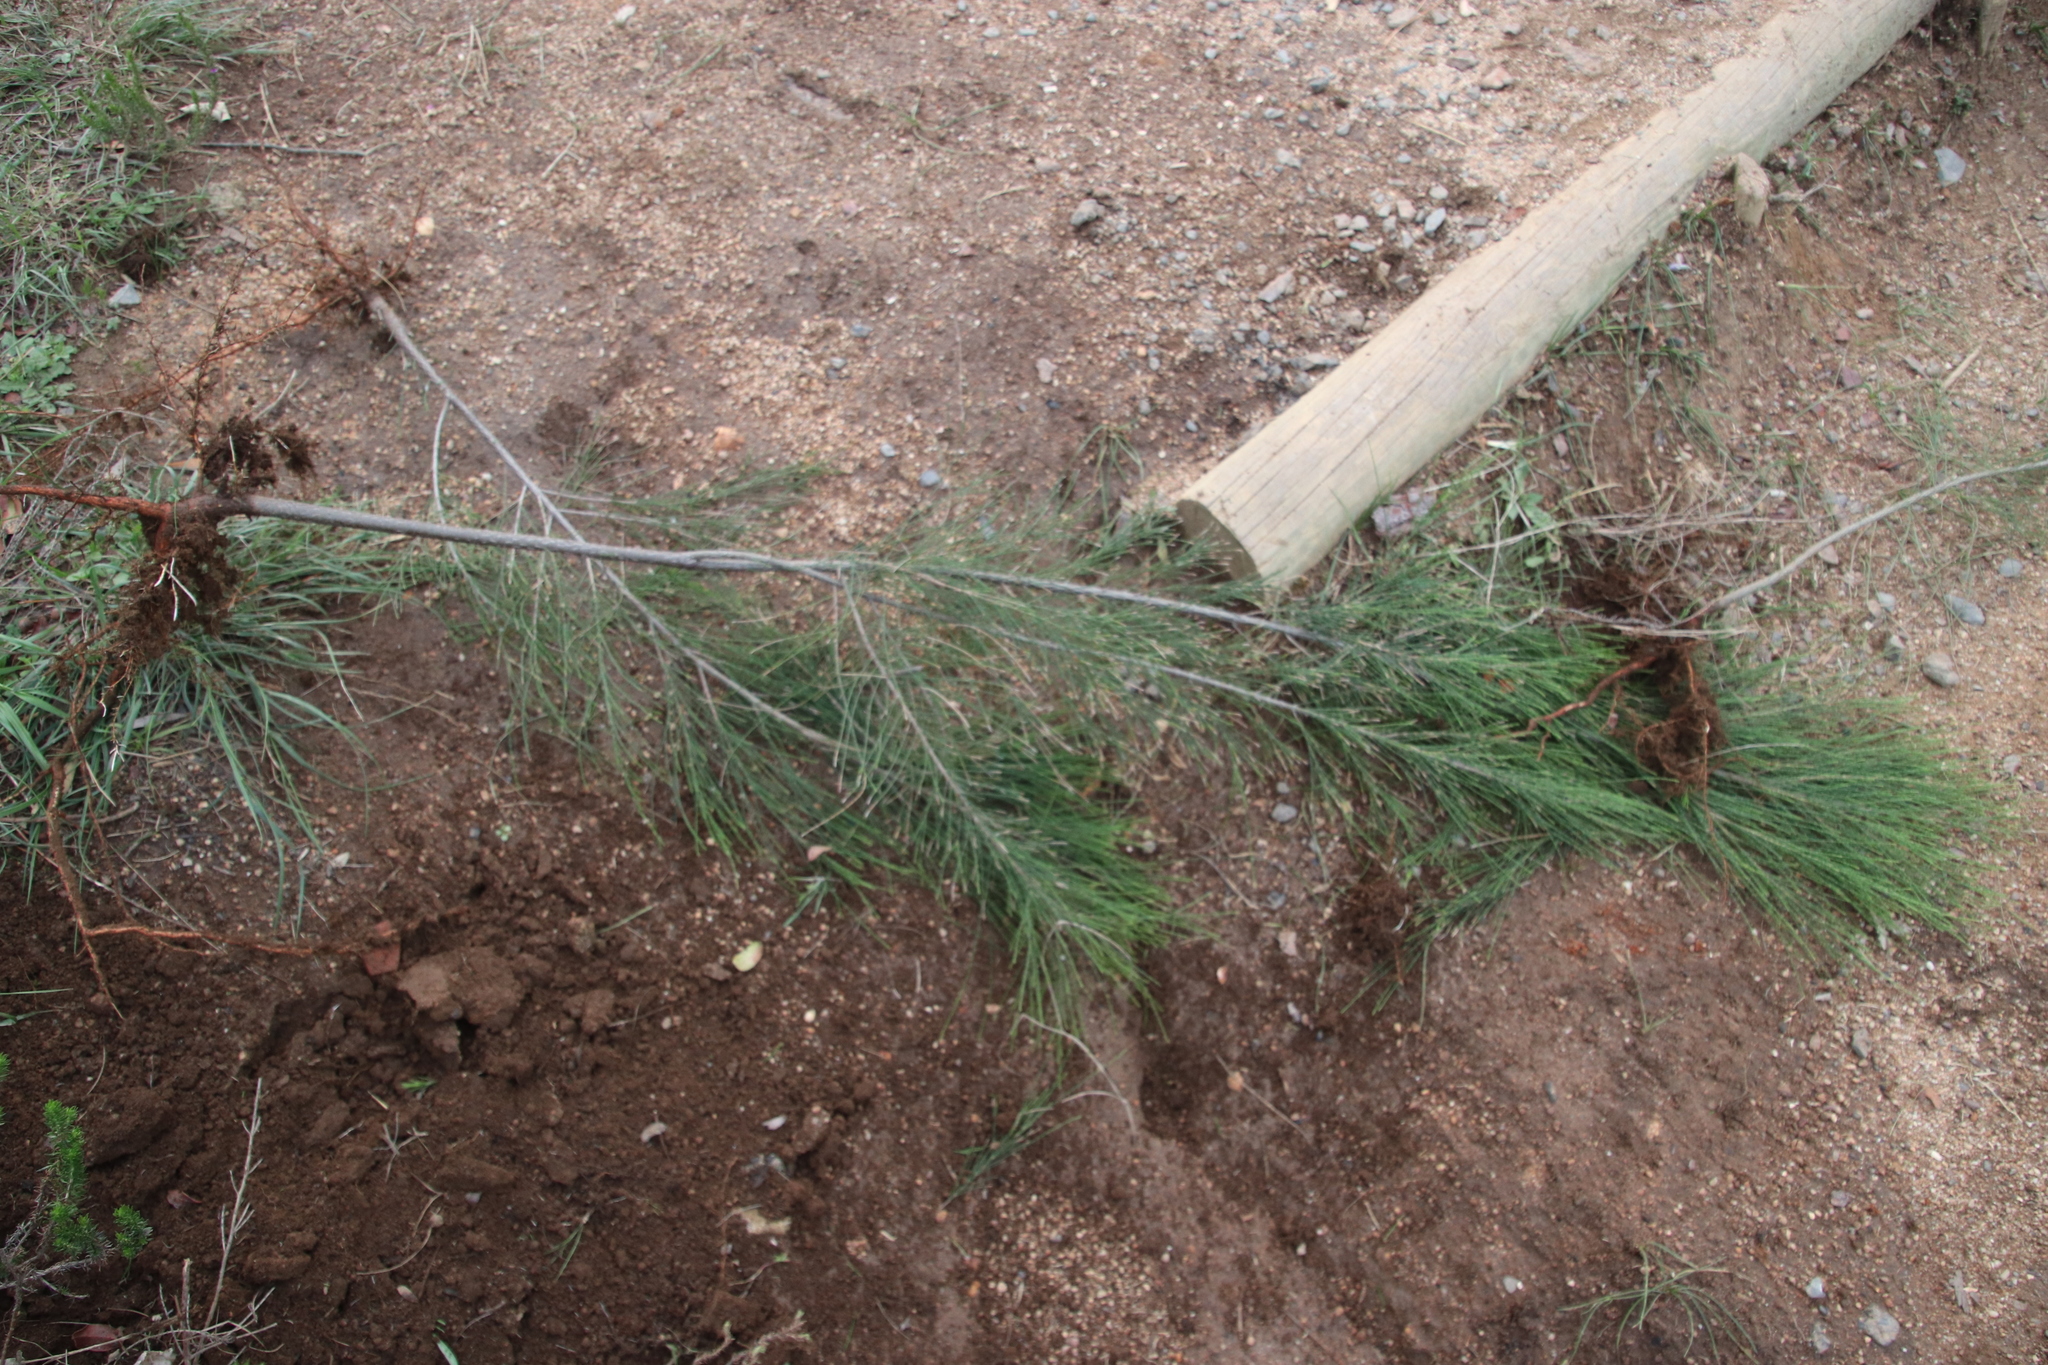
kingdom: Plantae
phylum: Tracheophyta
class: Magnoliopsida
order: Fagales
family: Casuarinaceae
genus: Casuarina
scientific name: Casuarina cunninghamiana
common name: River sheoak
